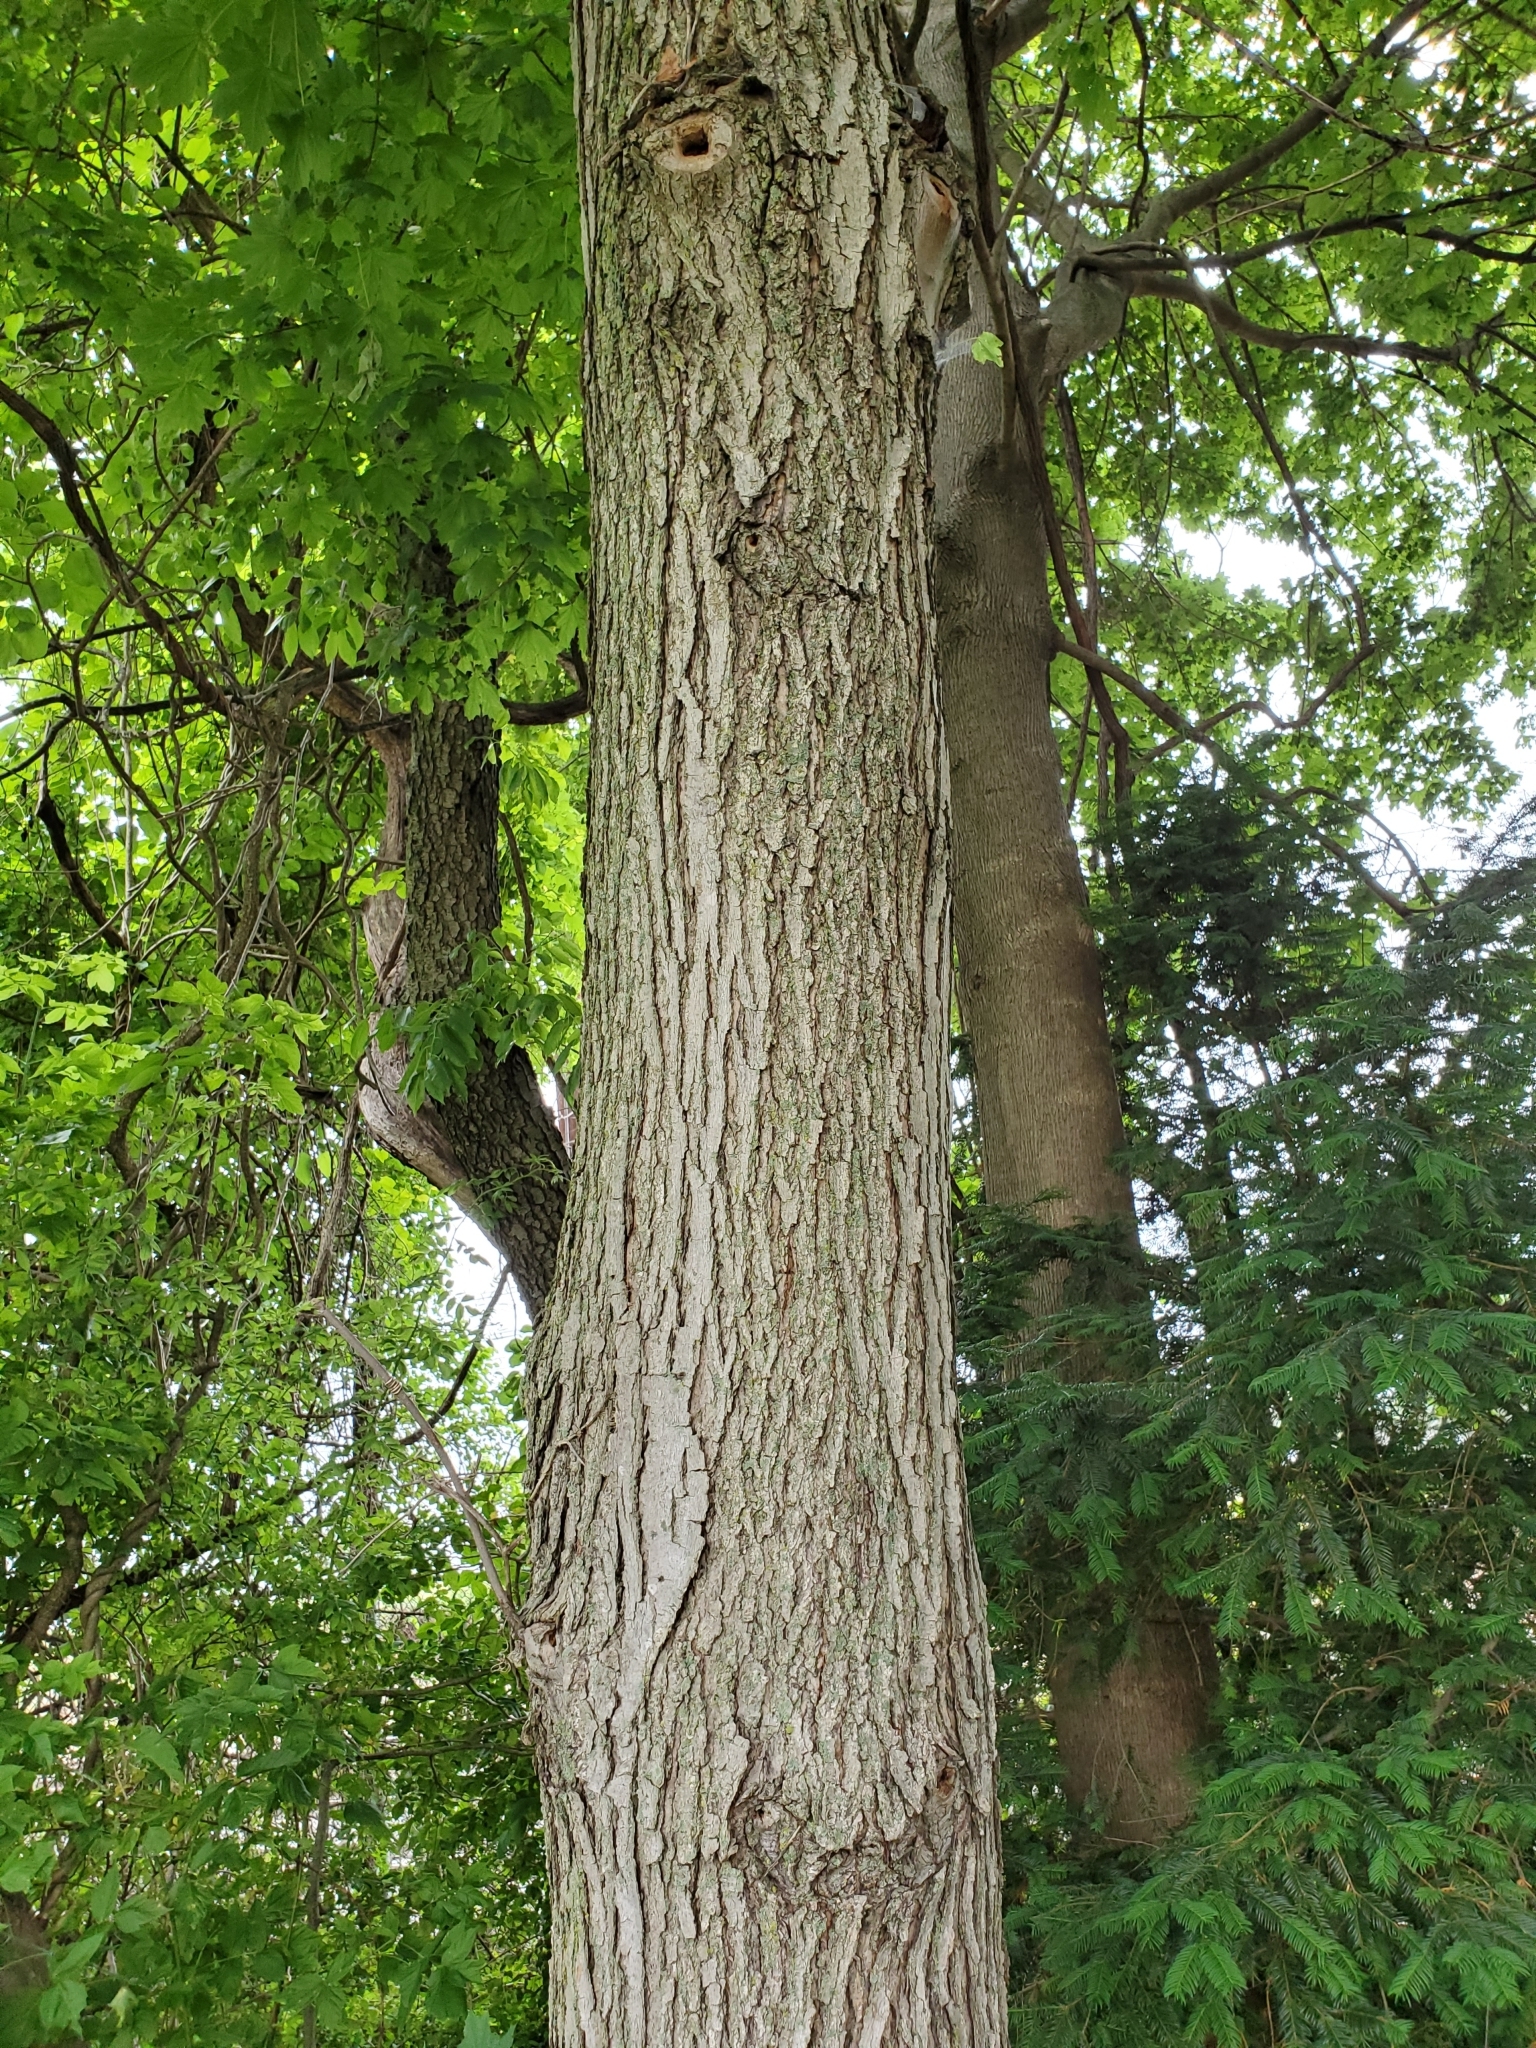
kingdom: Plantae
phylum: Tracheophyta
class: Magnoliopsida
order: Sapindales
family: Sapindaceae
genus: Acer
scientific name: Acer rubrum
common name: Red maple
